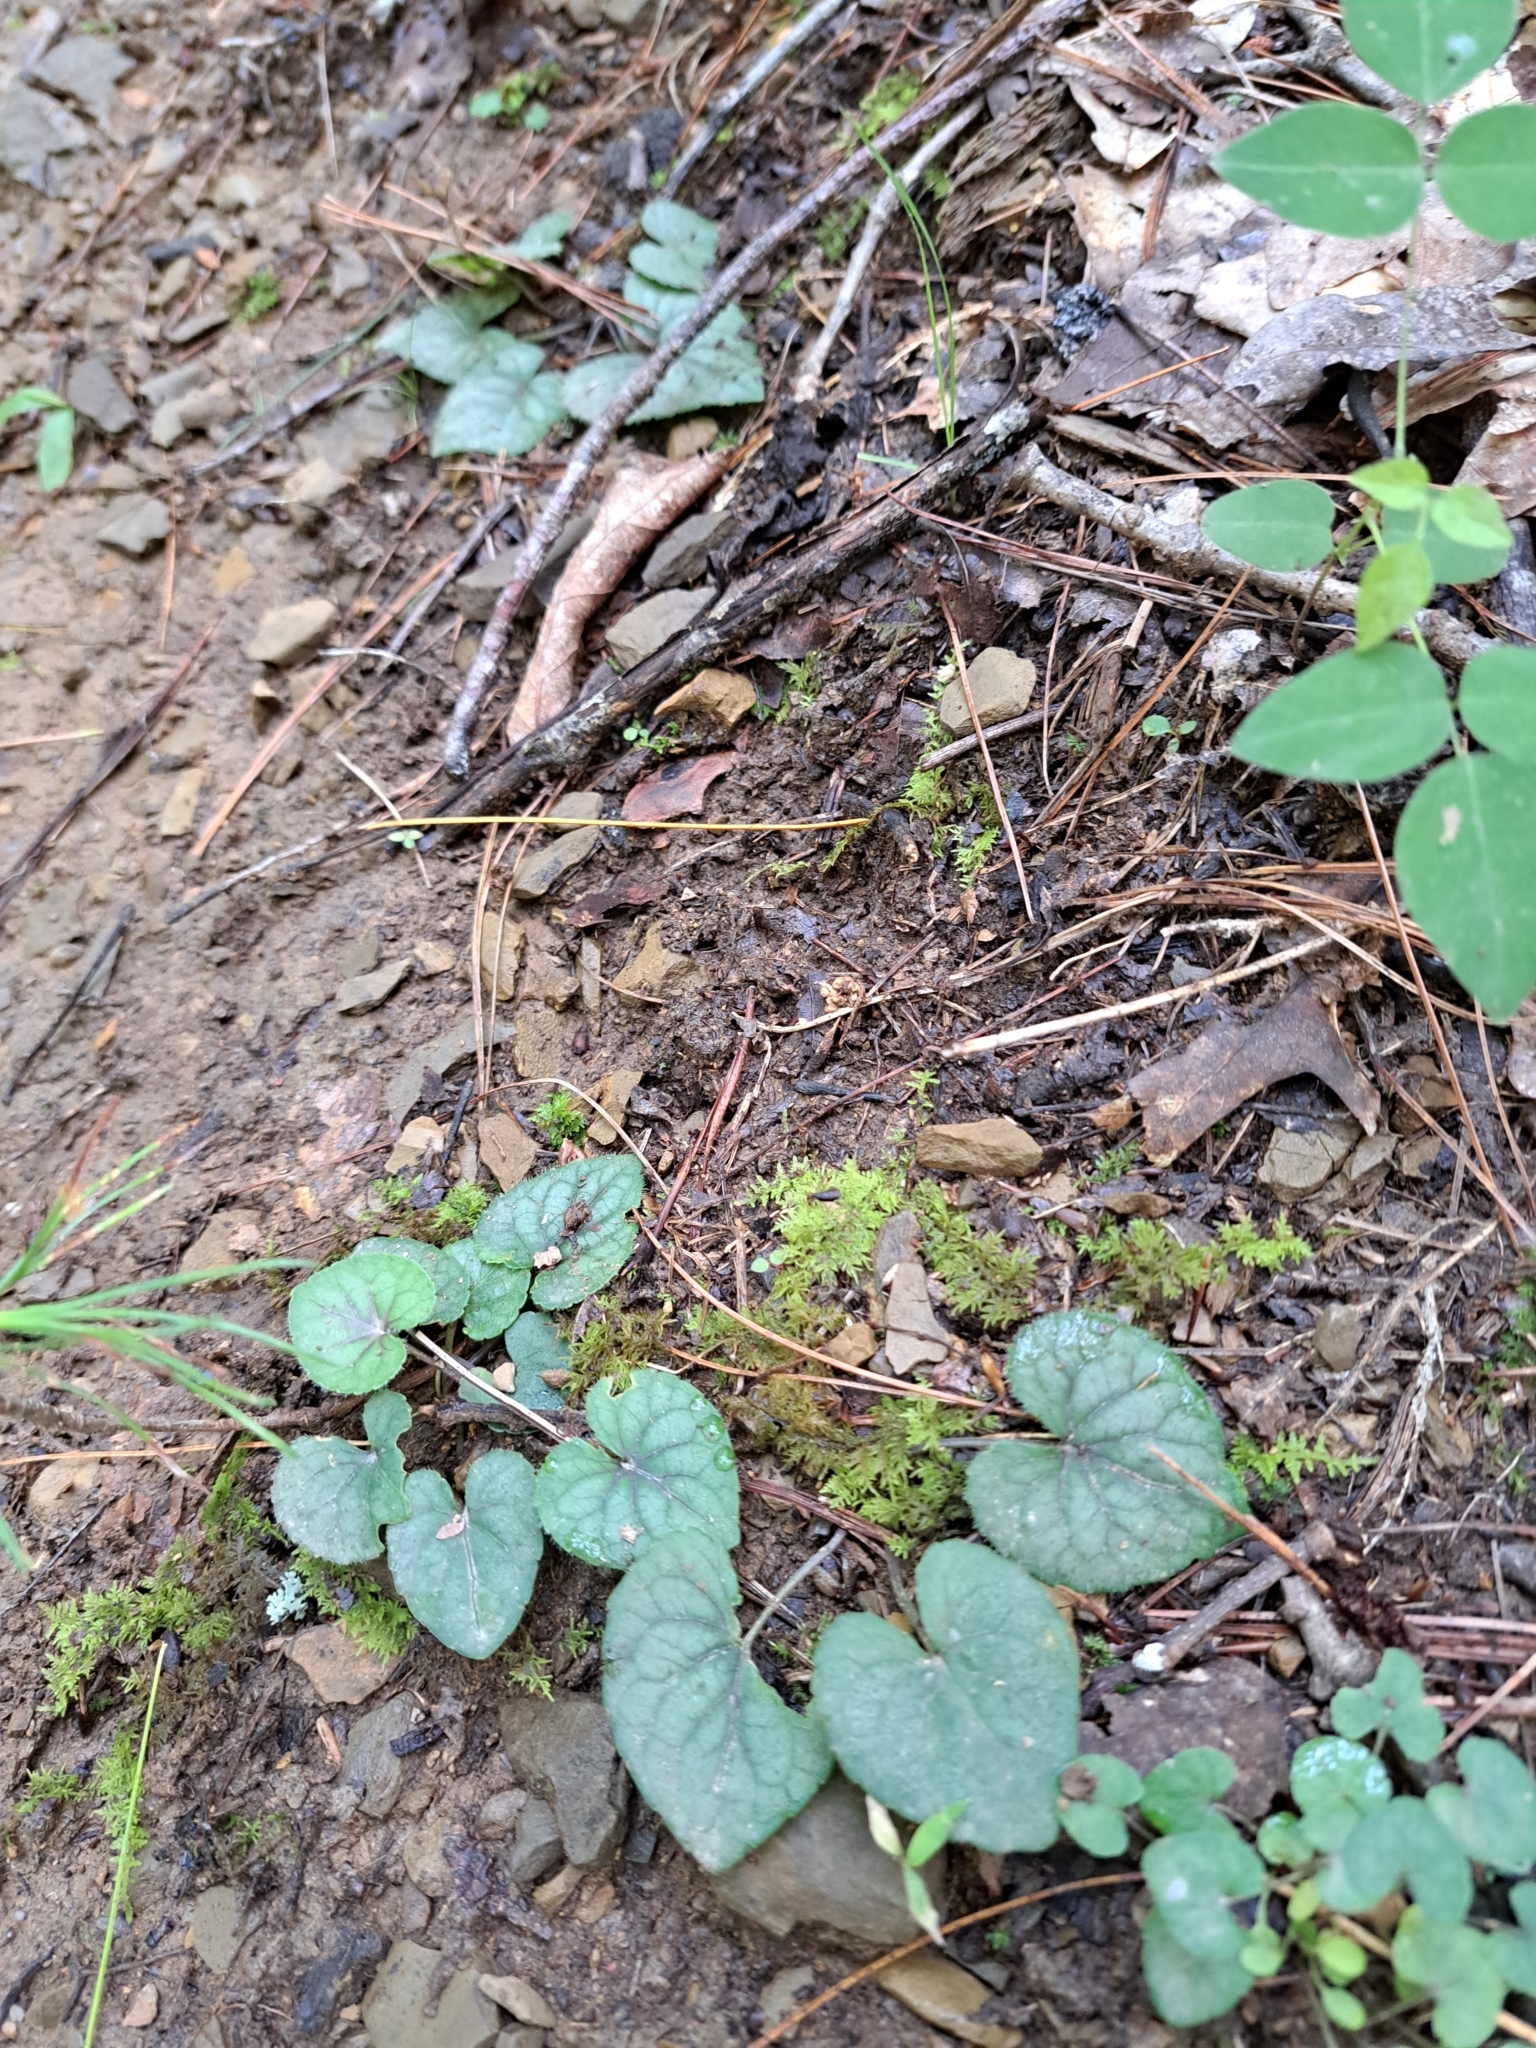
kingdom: Plantae
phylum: Tracheophyta
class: Magnoliopsida
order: Malpighiales
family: Violaceae
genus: Viola
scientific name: Viola hirsutula
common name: Southern wood violet
